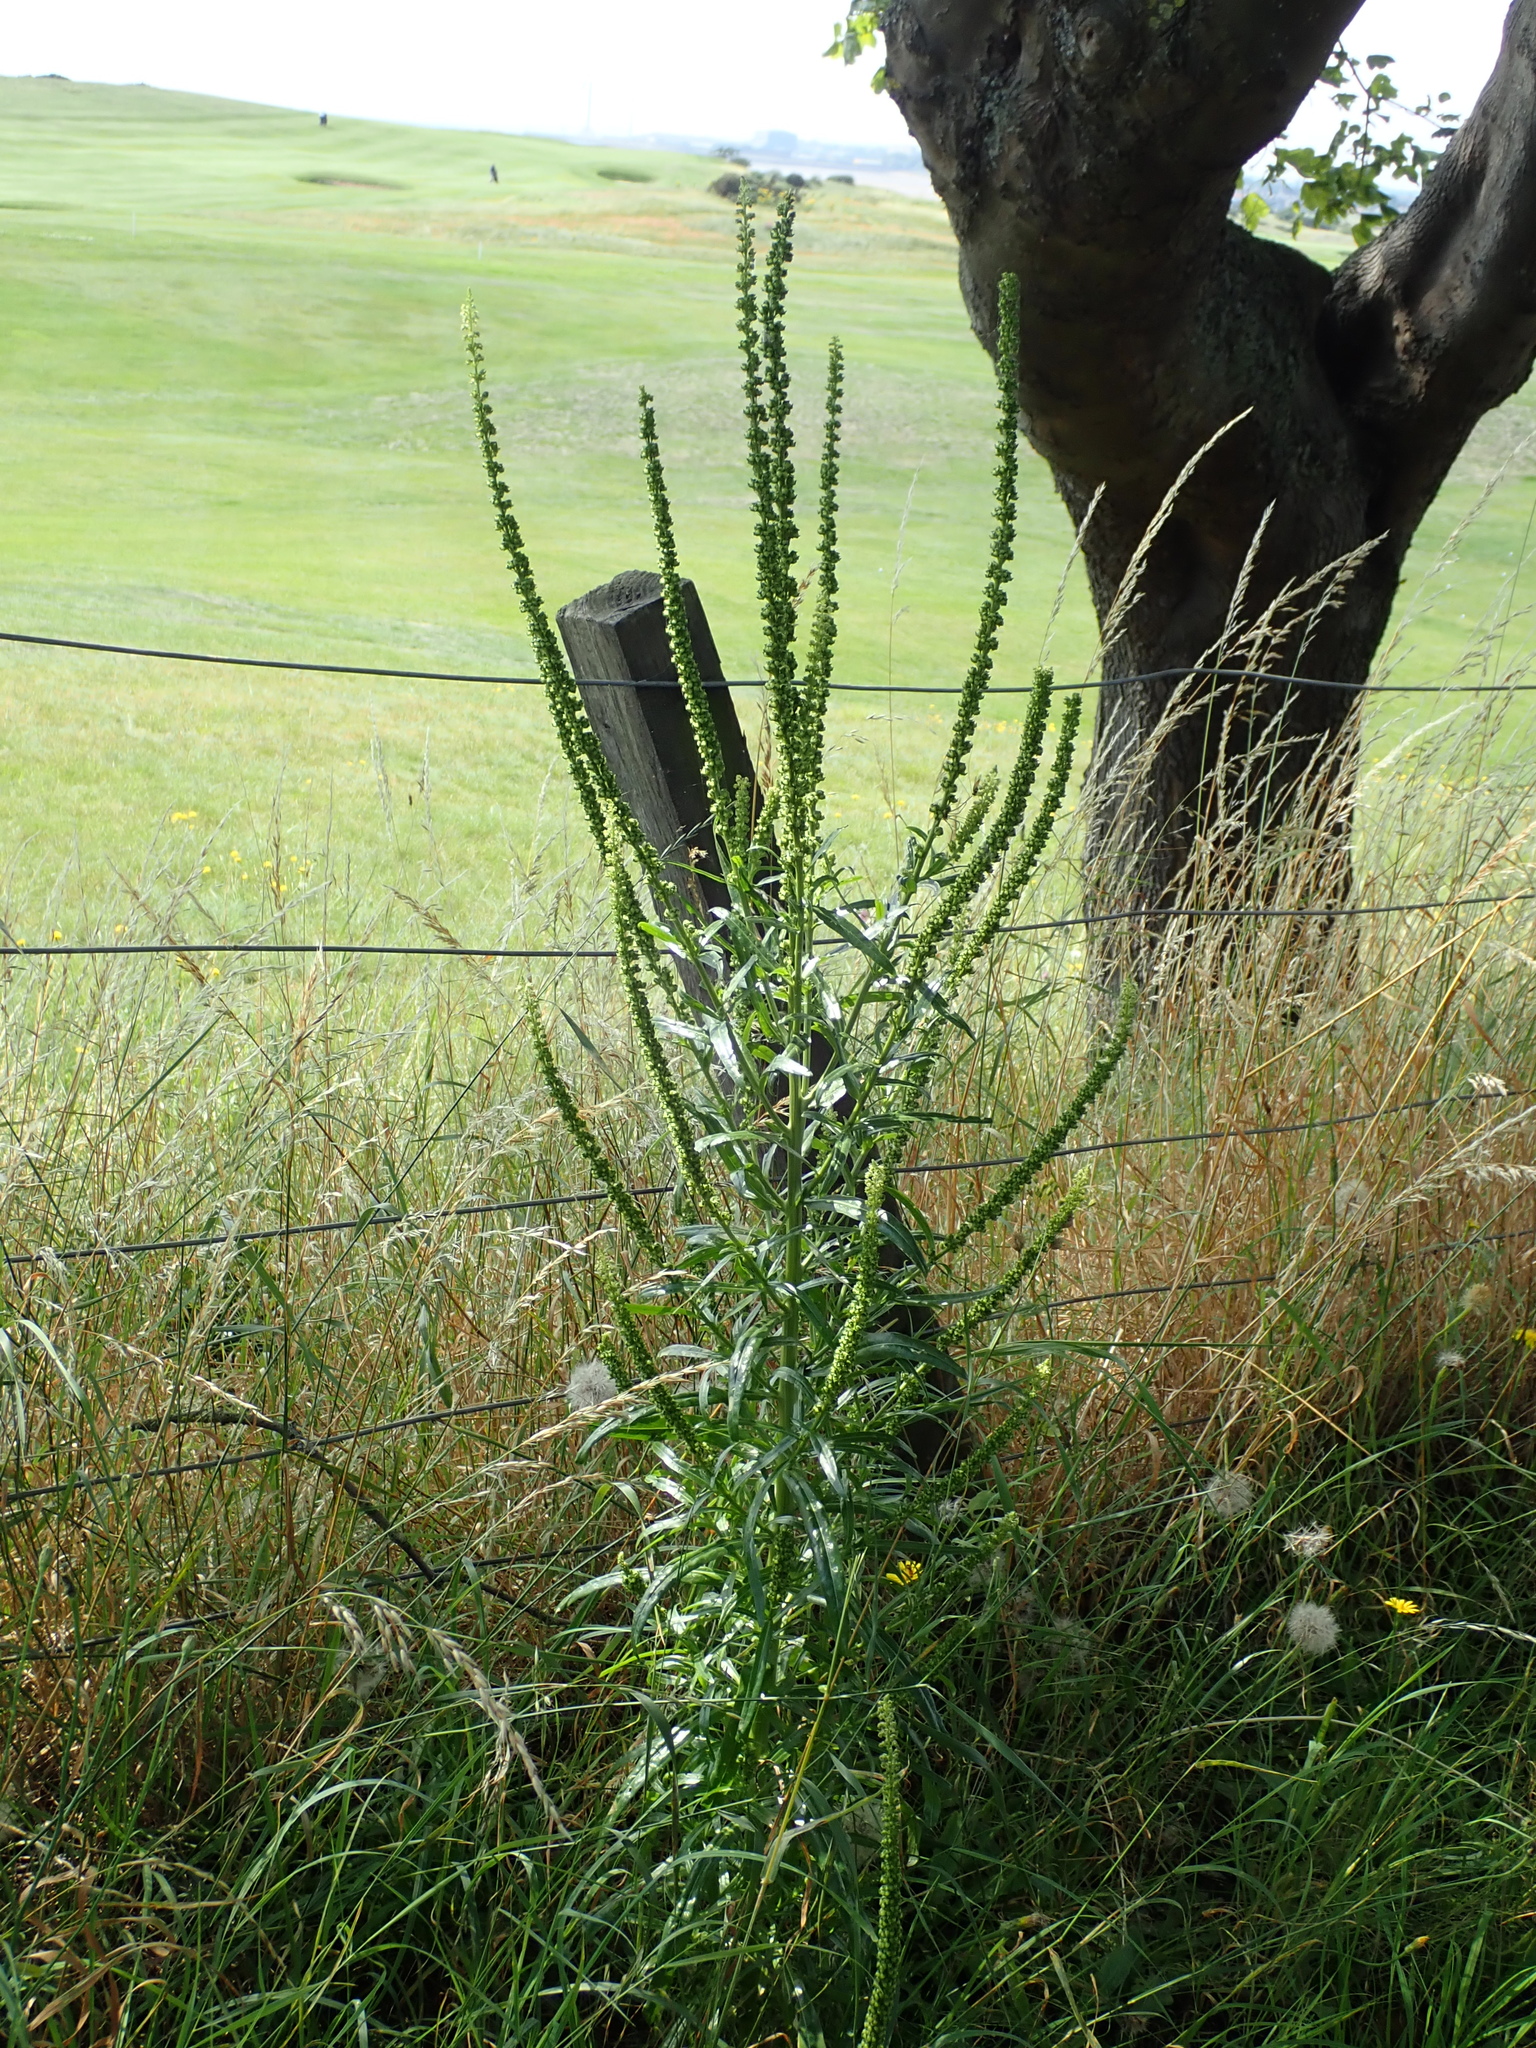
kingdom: Plantae
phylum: Tracheophyta
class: Magnoliopsida
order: Brassicales
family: Resedaceae
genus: Reseda
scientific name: Reseda luteola
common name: Weld
